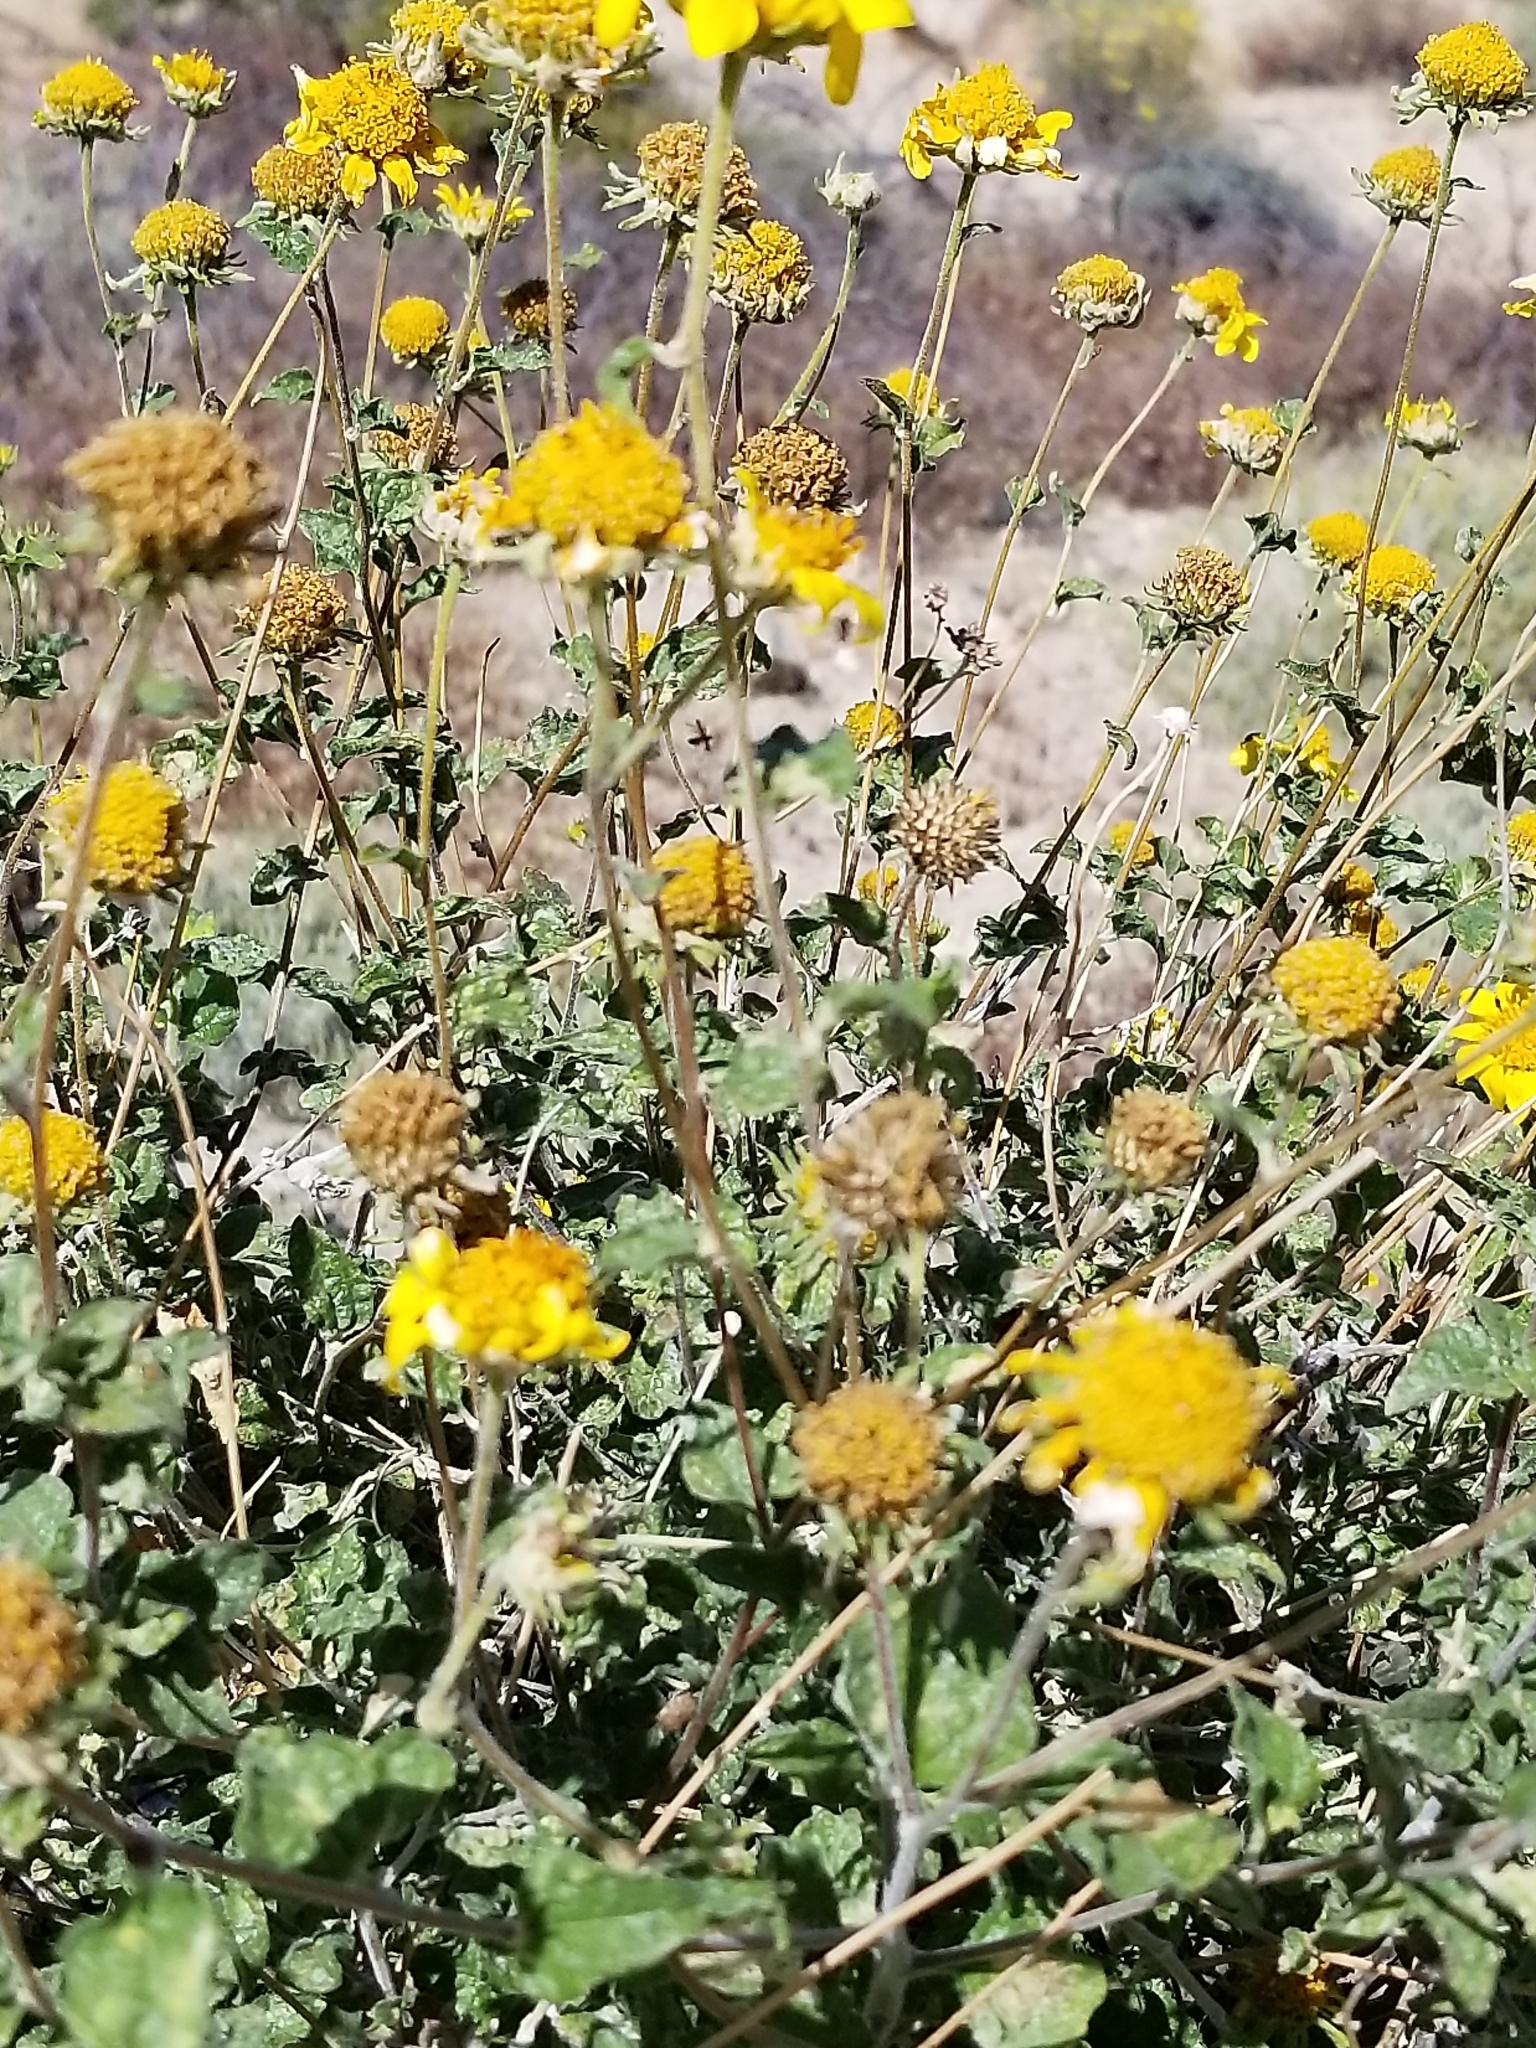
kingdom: Plantae
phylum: Tracheophyta
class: Magnoliopsida
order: Asterales
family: Asteraceae
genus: Bahiopsis
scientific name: Bahiopsis parishii
